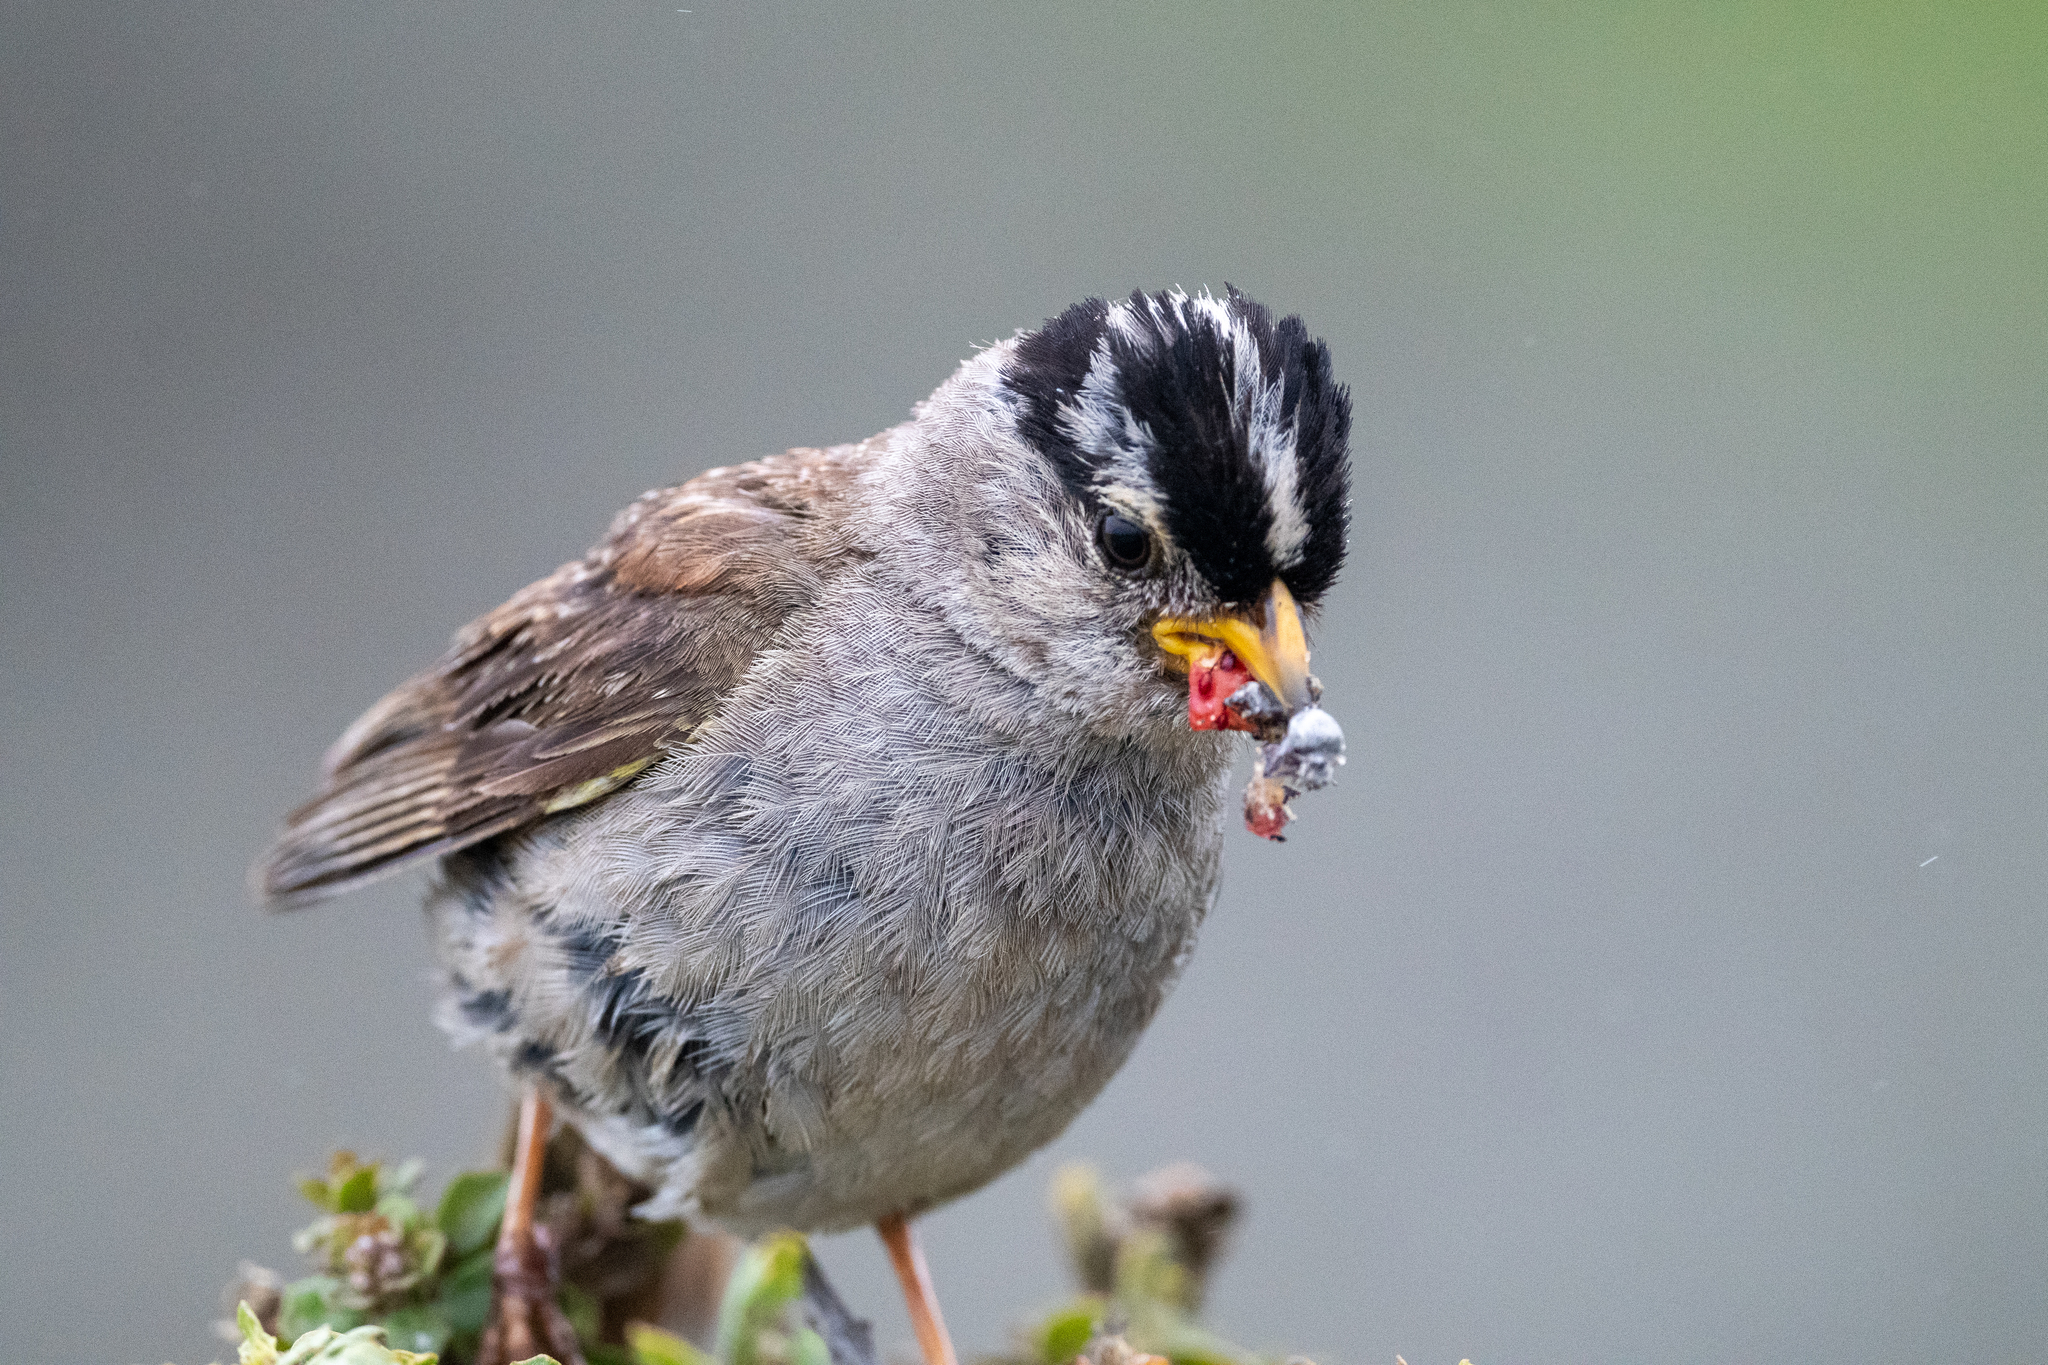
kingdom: Animalia
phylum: Chordata
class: Aves
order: Passeriformes
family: Passerellidae
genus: Zonotrichia
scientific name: Zonotrichia leucophrys
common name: White-crowned sparrow
